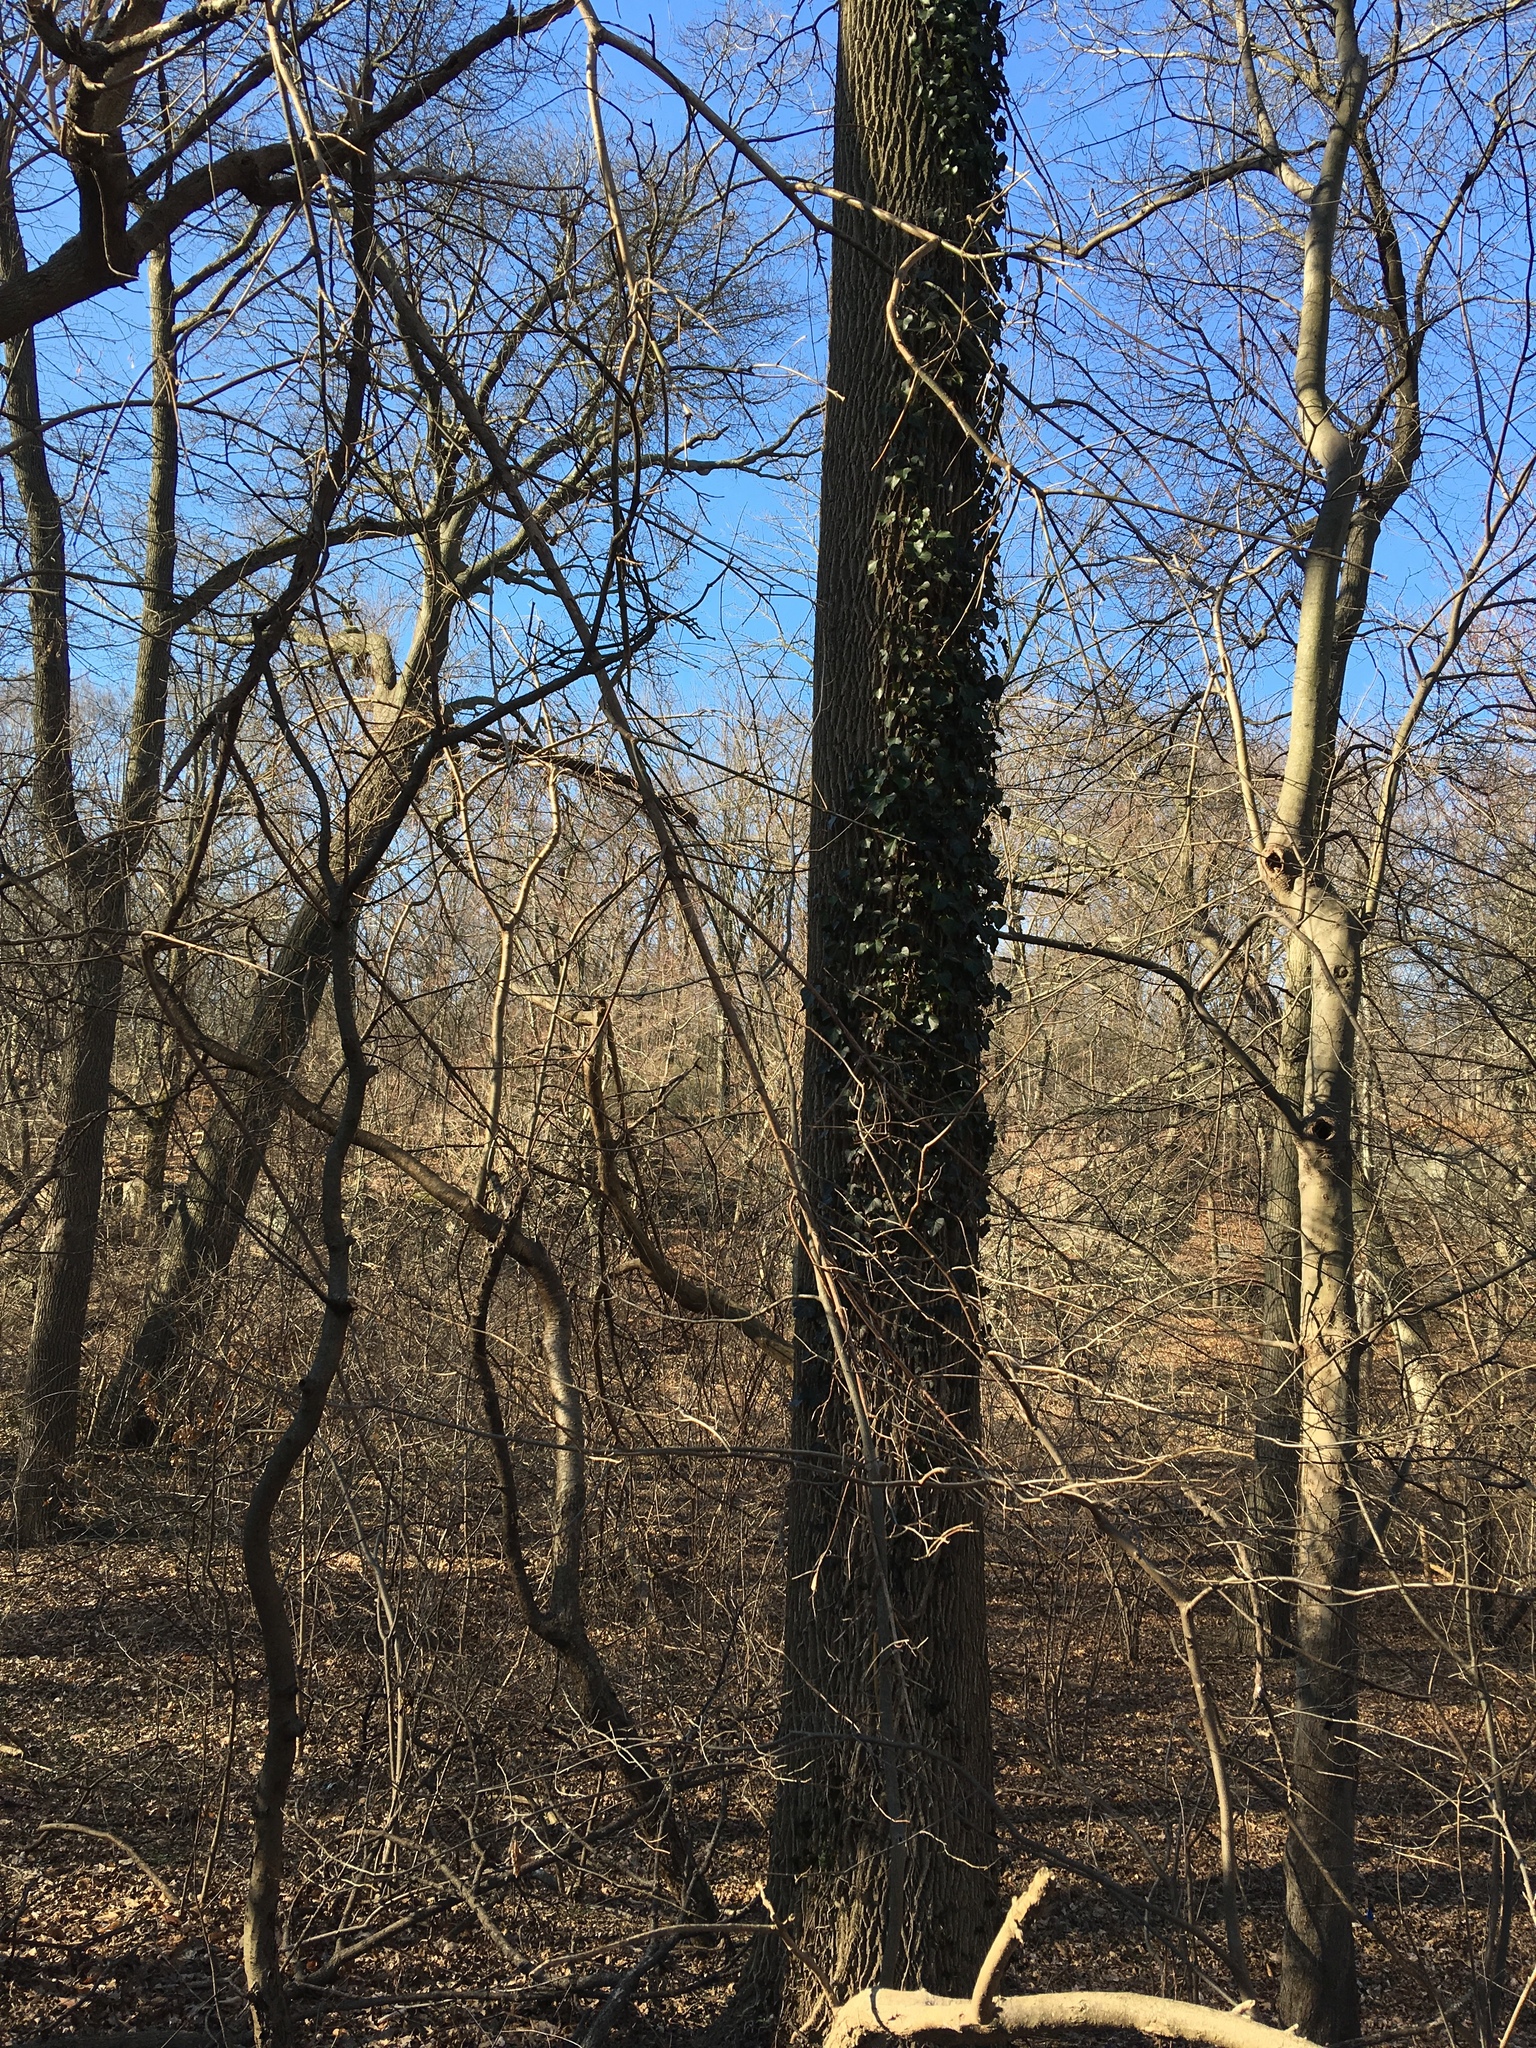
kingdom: Plantae
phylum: Tracheophyta
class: Magnoliopsida
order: Apiales
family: Araliaceae
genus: Hedera
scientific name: Hedera helix
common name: Ivy
